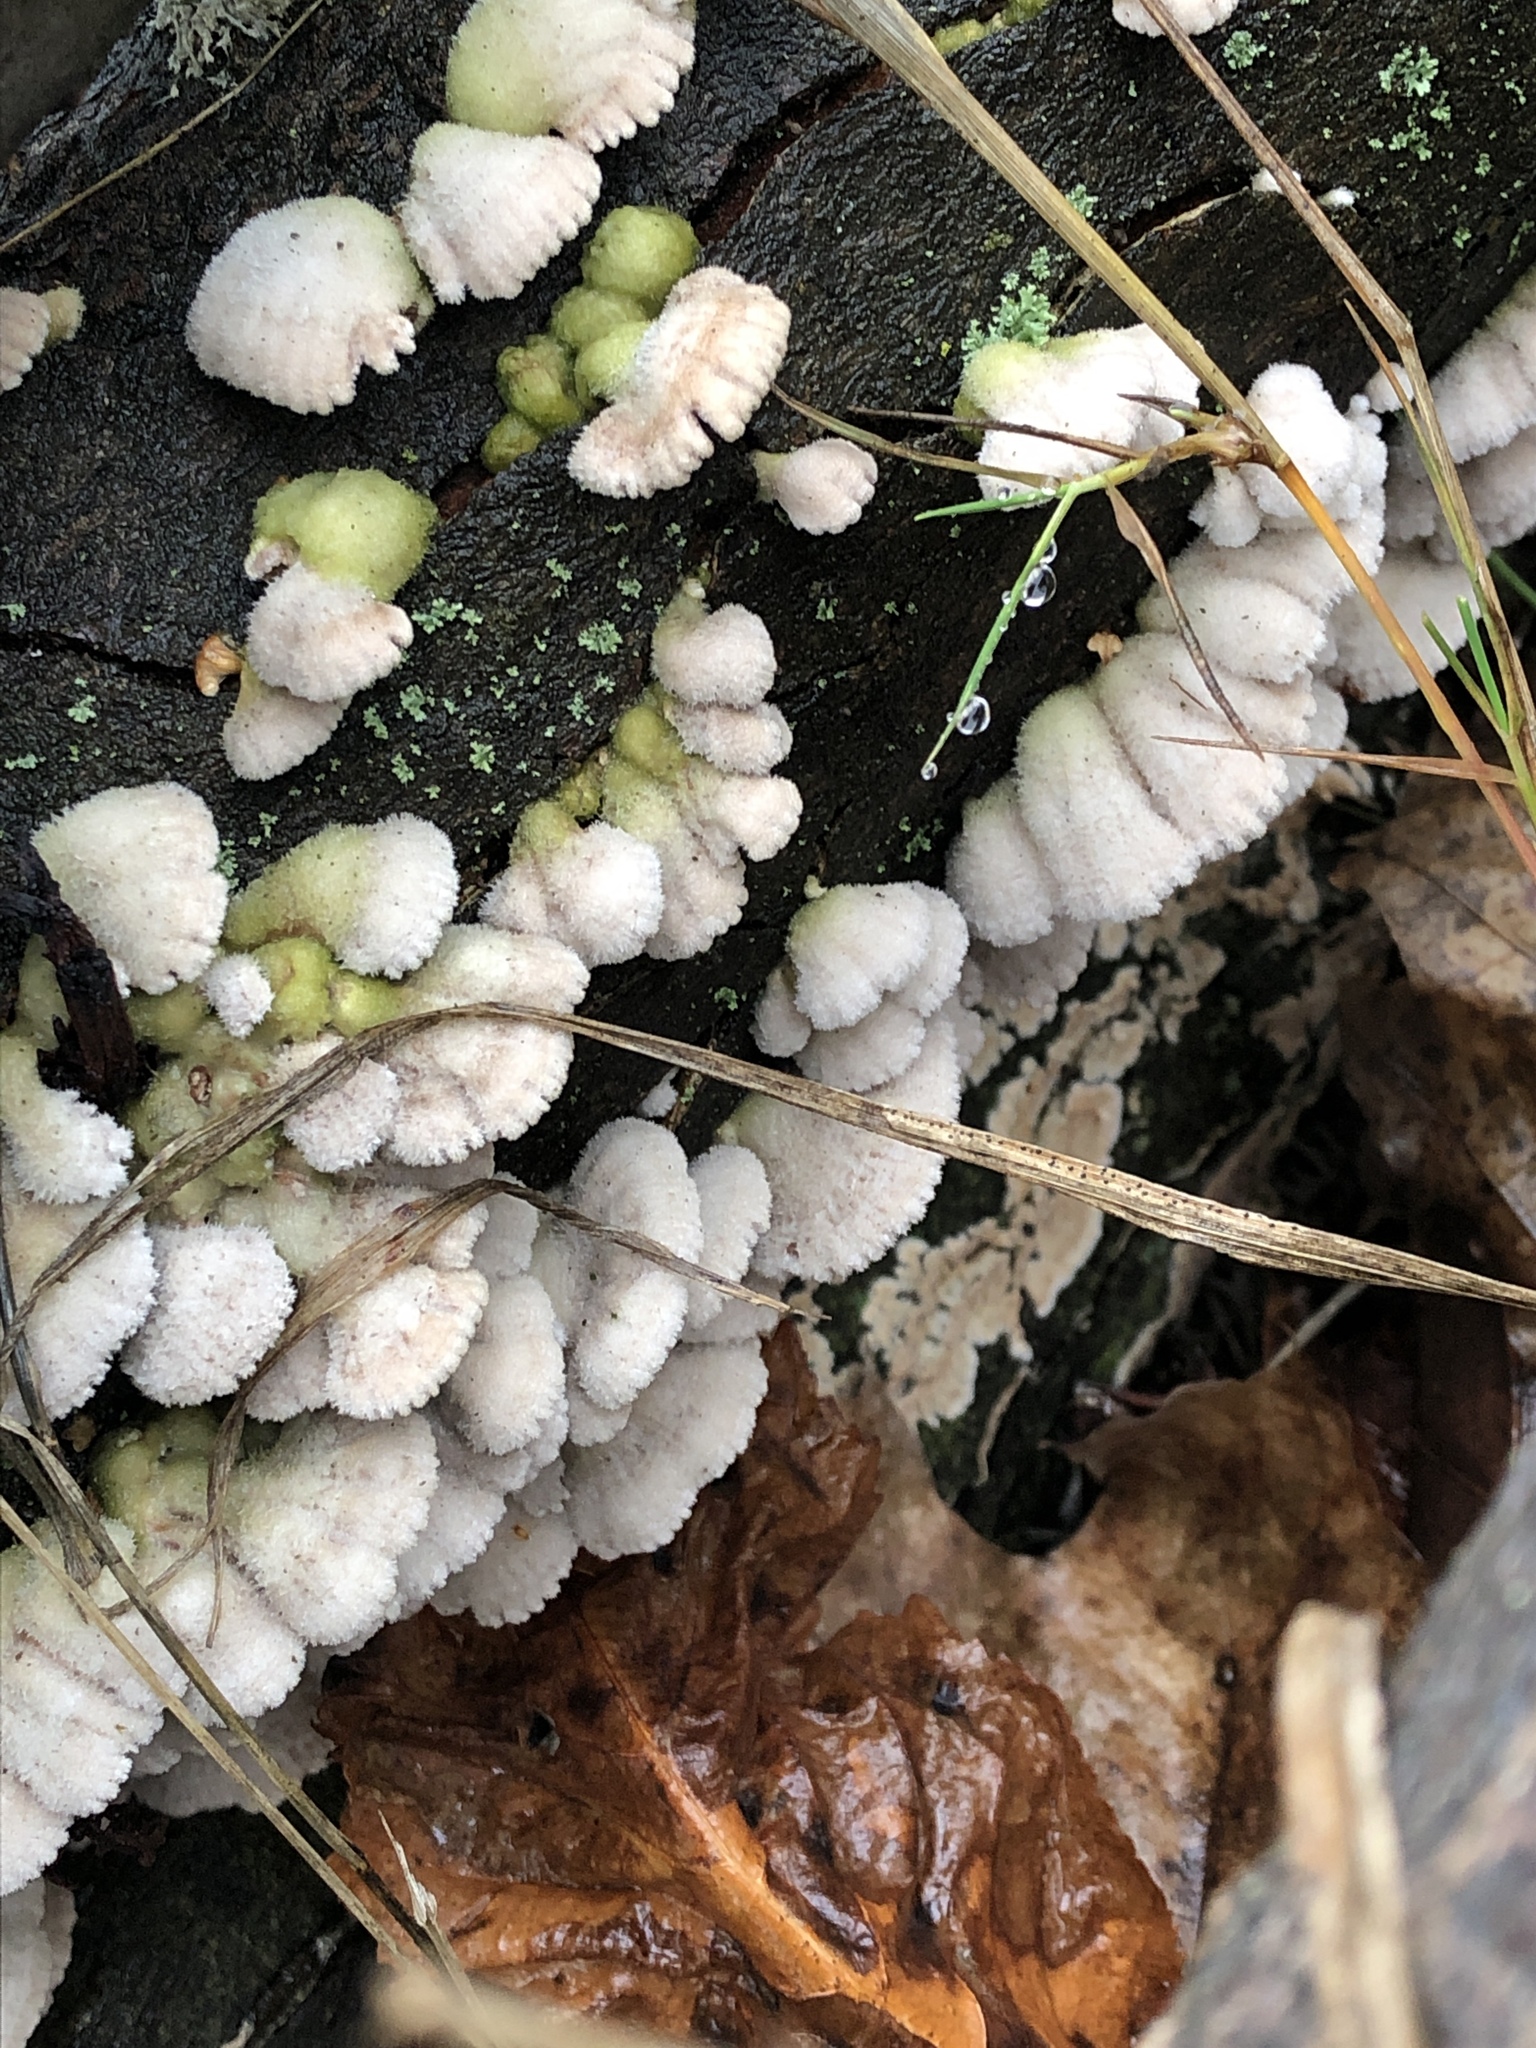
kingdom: Fungi
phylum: Basidiomycota
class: Agaricomycetes
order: Agaricales
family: Schizophyllaceae
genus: Schizophyllum
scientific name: Schizophyllum commune
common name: Common porecrust
